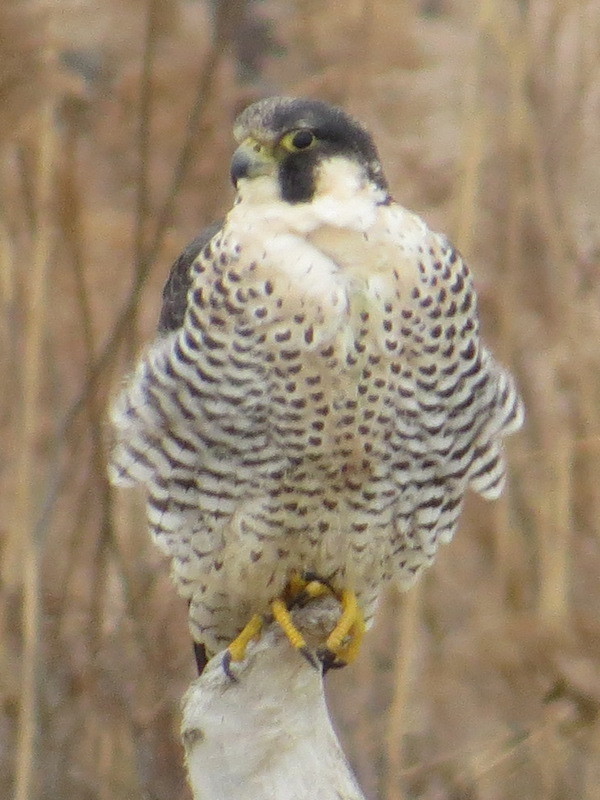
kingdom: Animalia
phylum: Chordata
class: Aves
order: Falconiformes
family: Falconidae
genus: Falco
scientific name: Falco peregrinus
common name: Peregrine falcon
